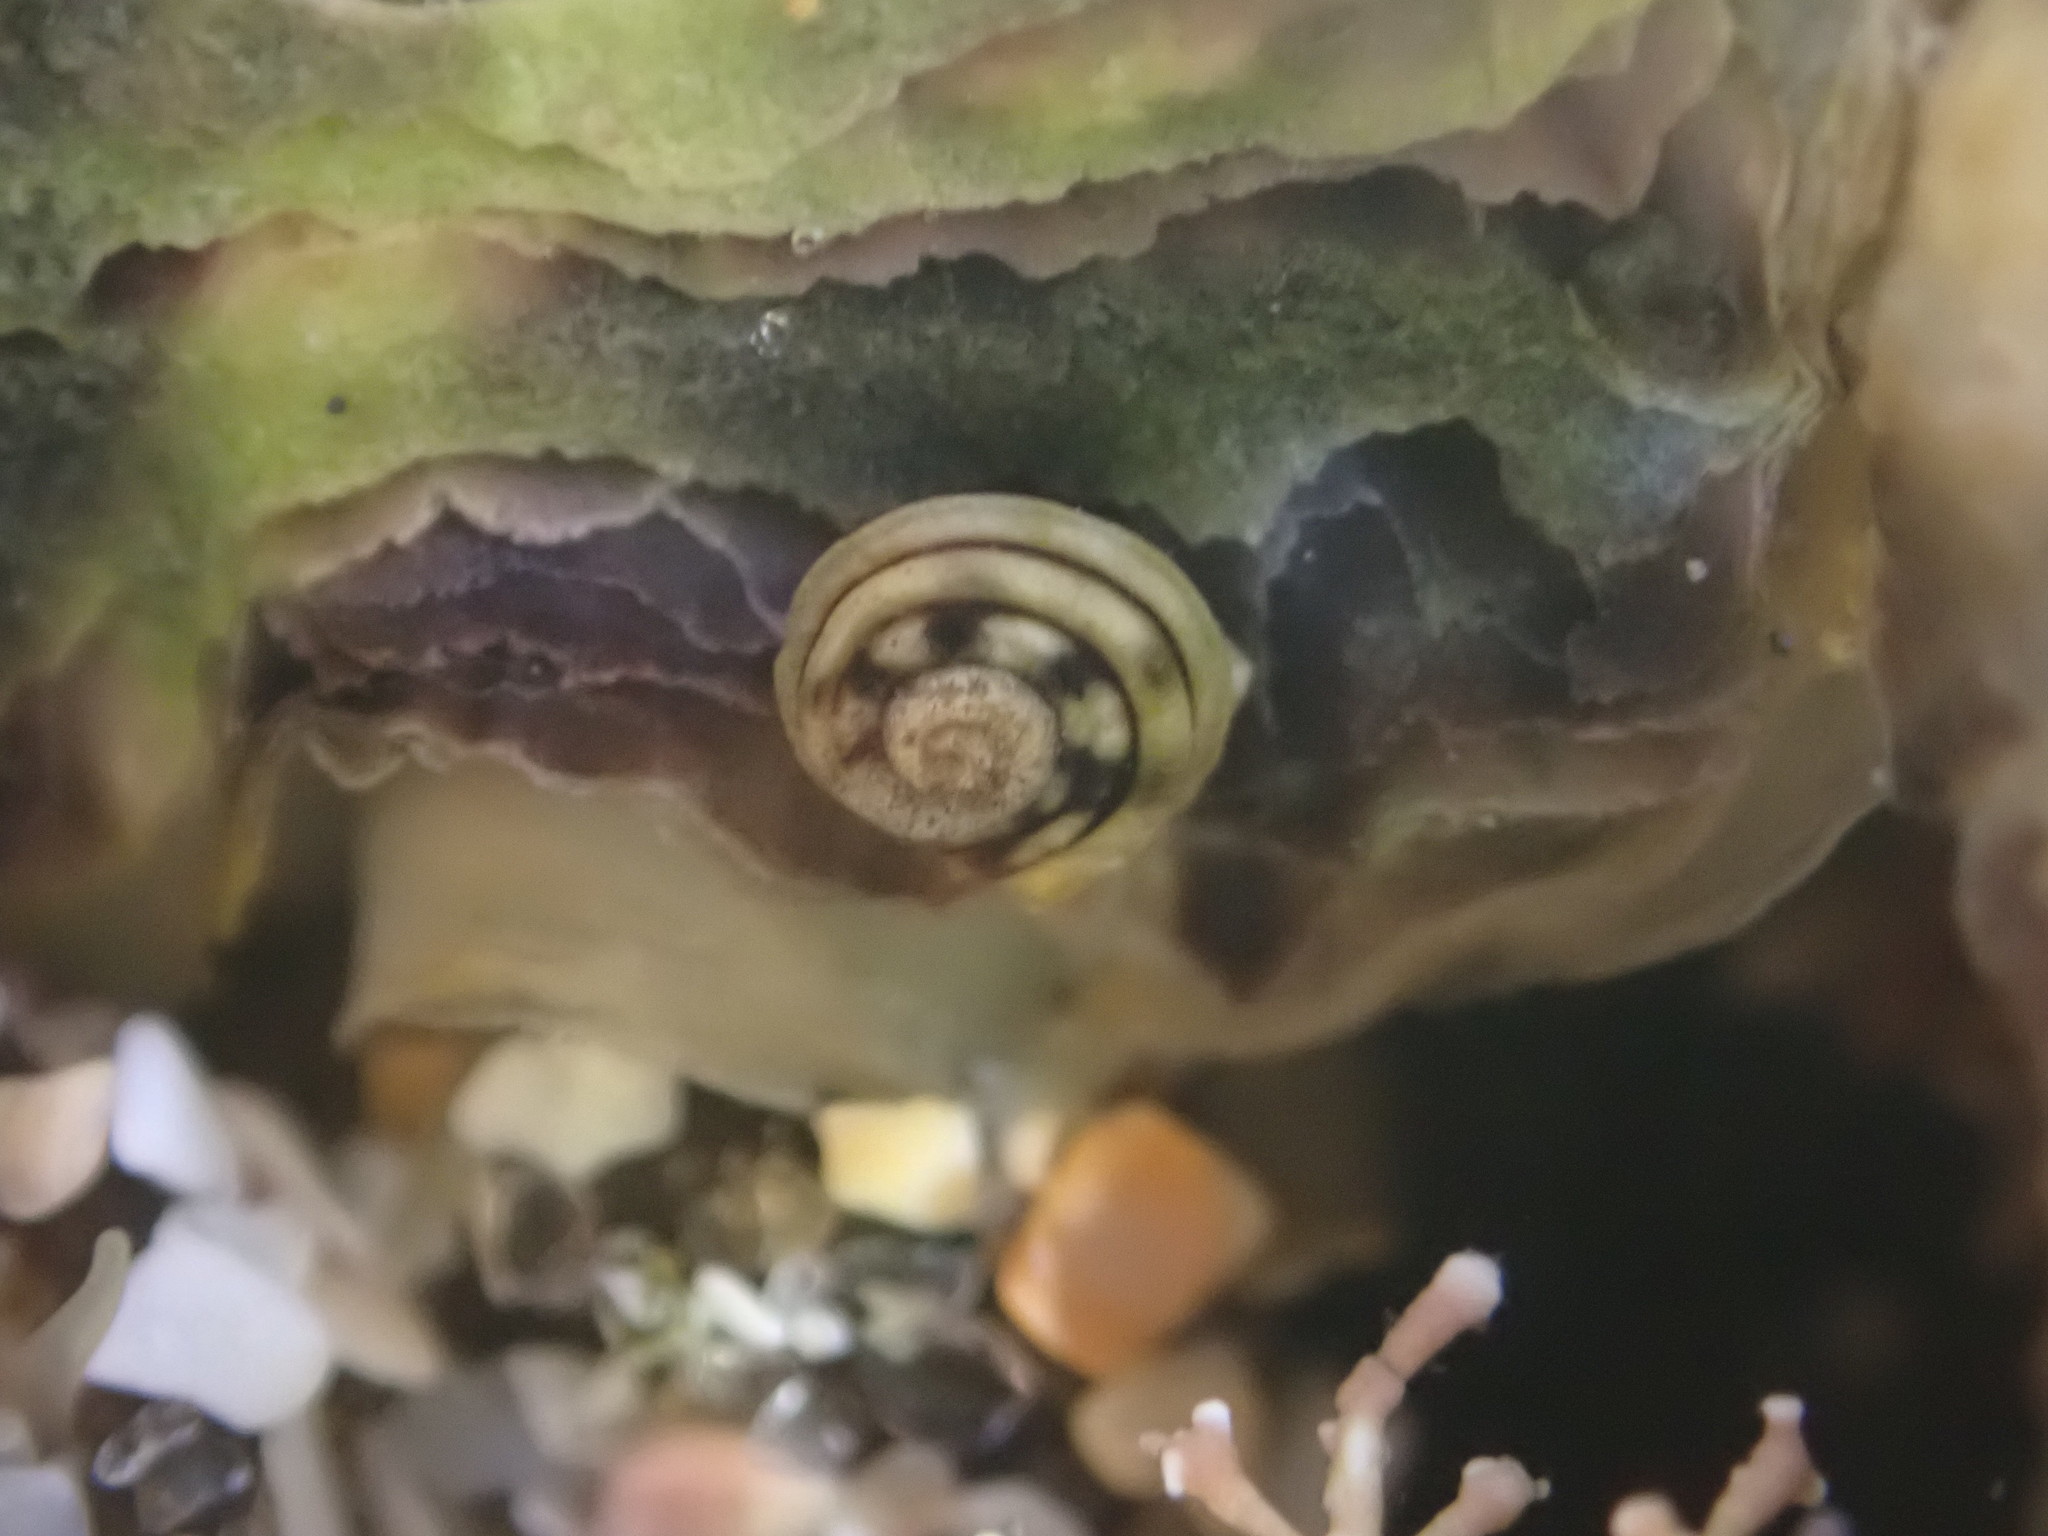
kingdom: Animalia
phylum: Mollusca
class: Gastropoda
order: Littorinimorpha
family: Littorinidae
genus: Risellopsis
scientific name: Risellopsis varia
